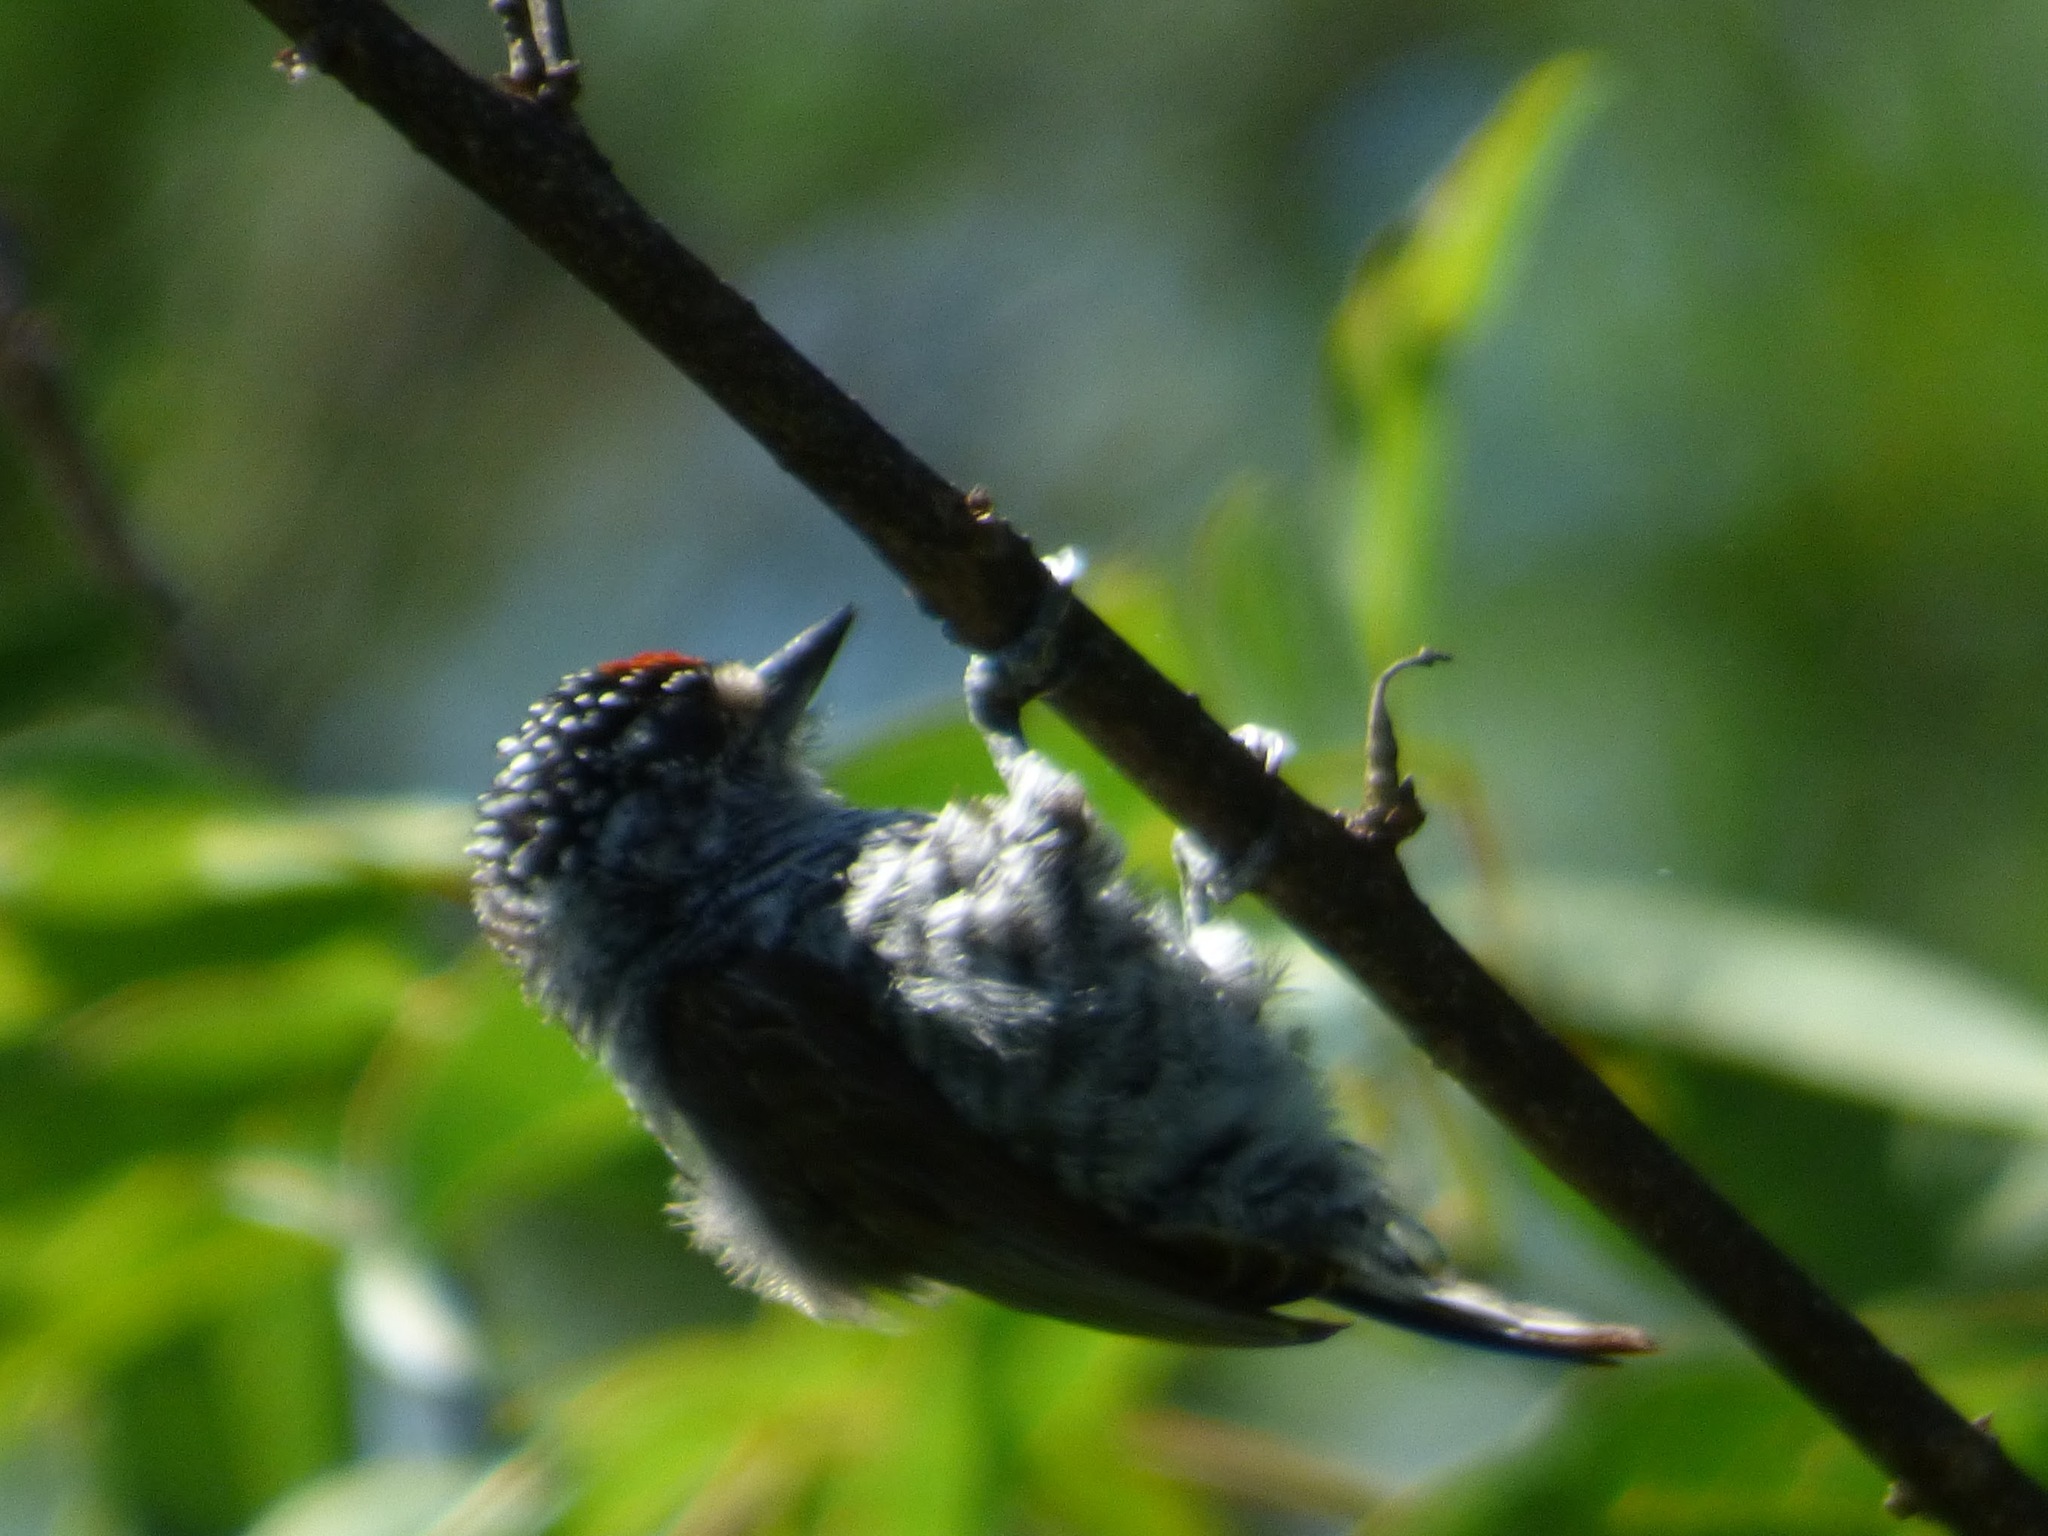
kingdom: Animalia
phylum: Chordata
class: Aves
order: Piciformes
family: Picidae
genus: Picumnus
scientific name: Picumnus cirratus
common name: White-barred piculet
